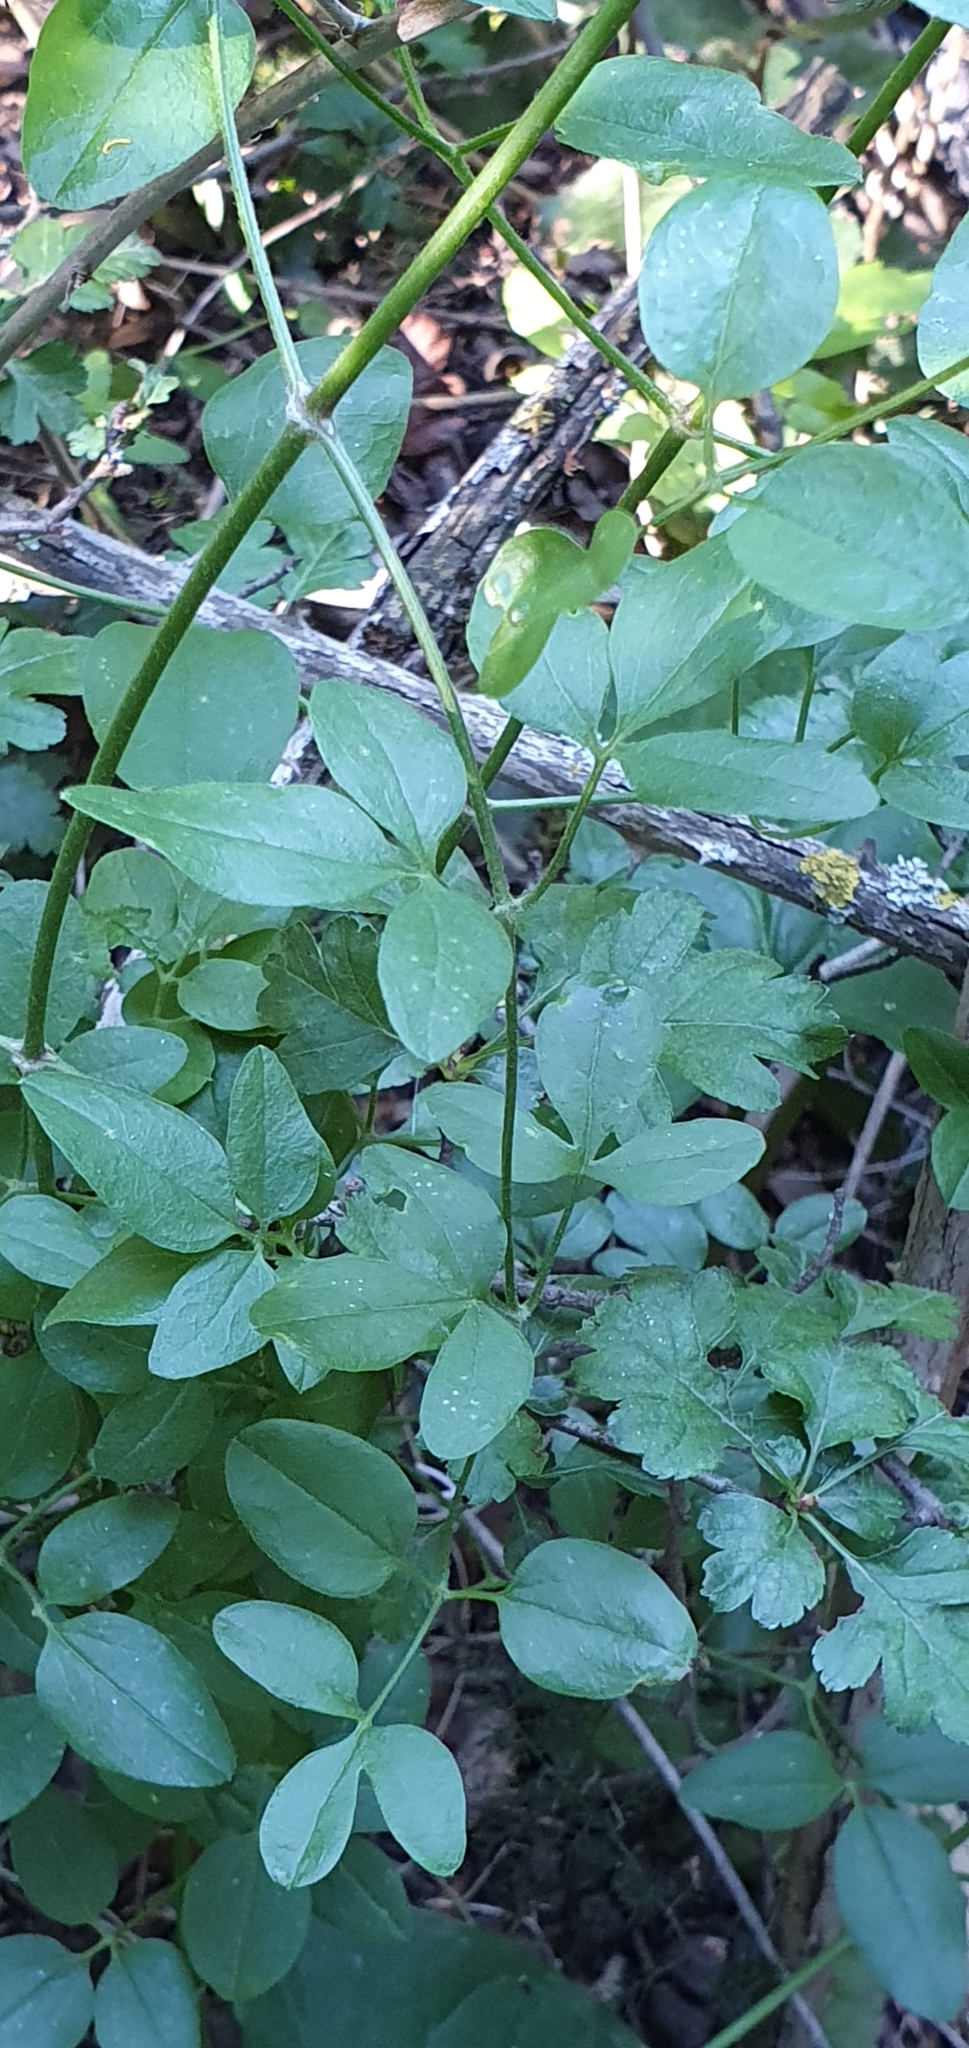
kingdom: Plantae
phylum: Tracheophyta
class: Magnoliopsida
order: Ranunculales
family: Ranunculaceae
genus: Clematis
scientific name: Clematis flammula
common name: Virgin's-bower
